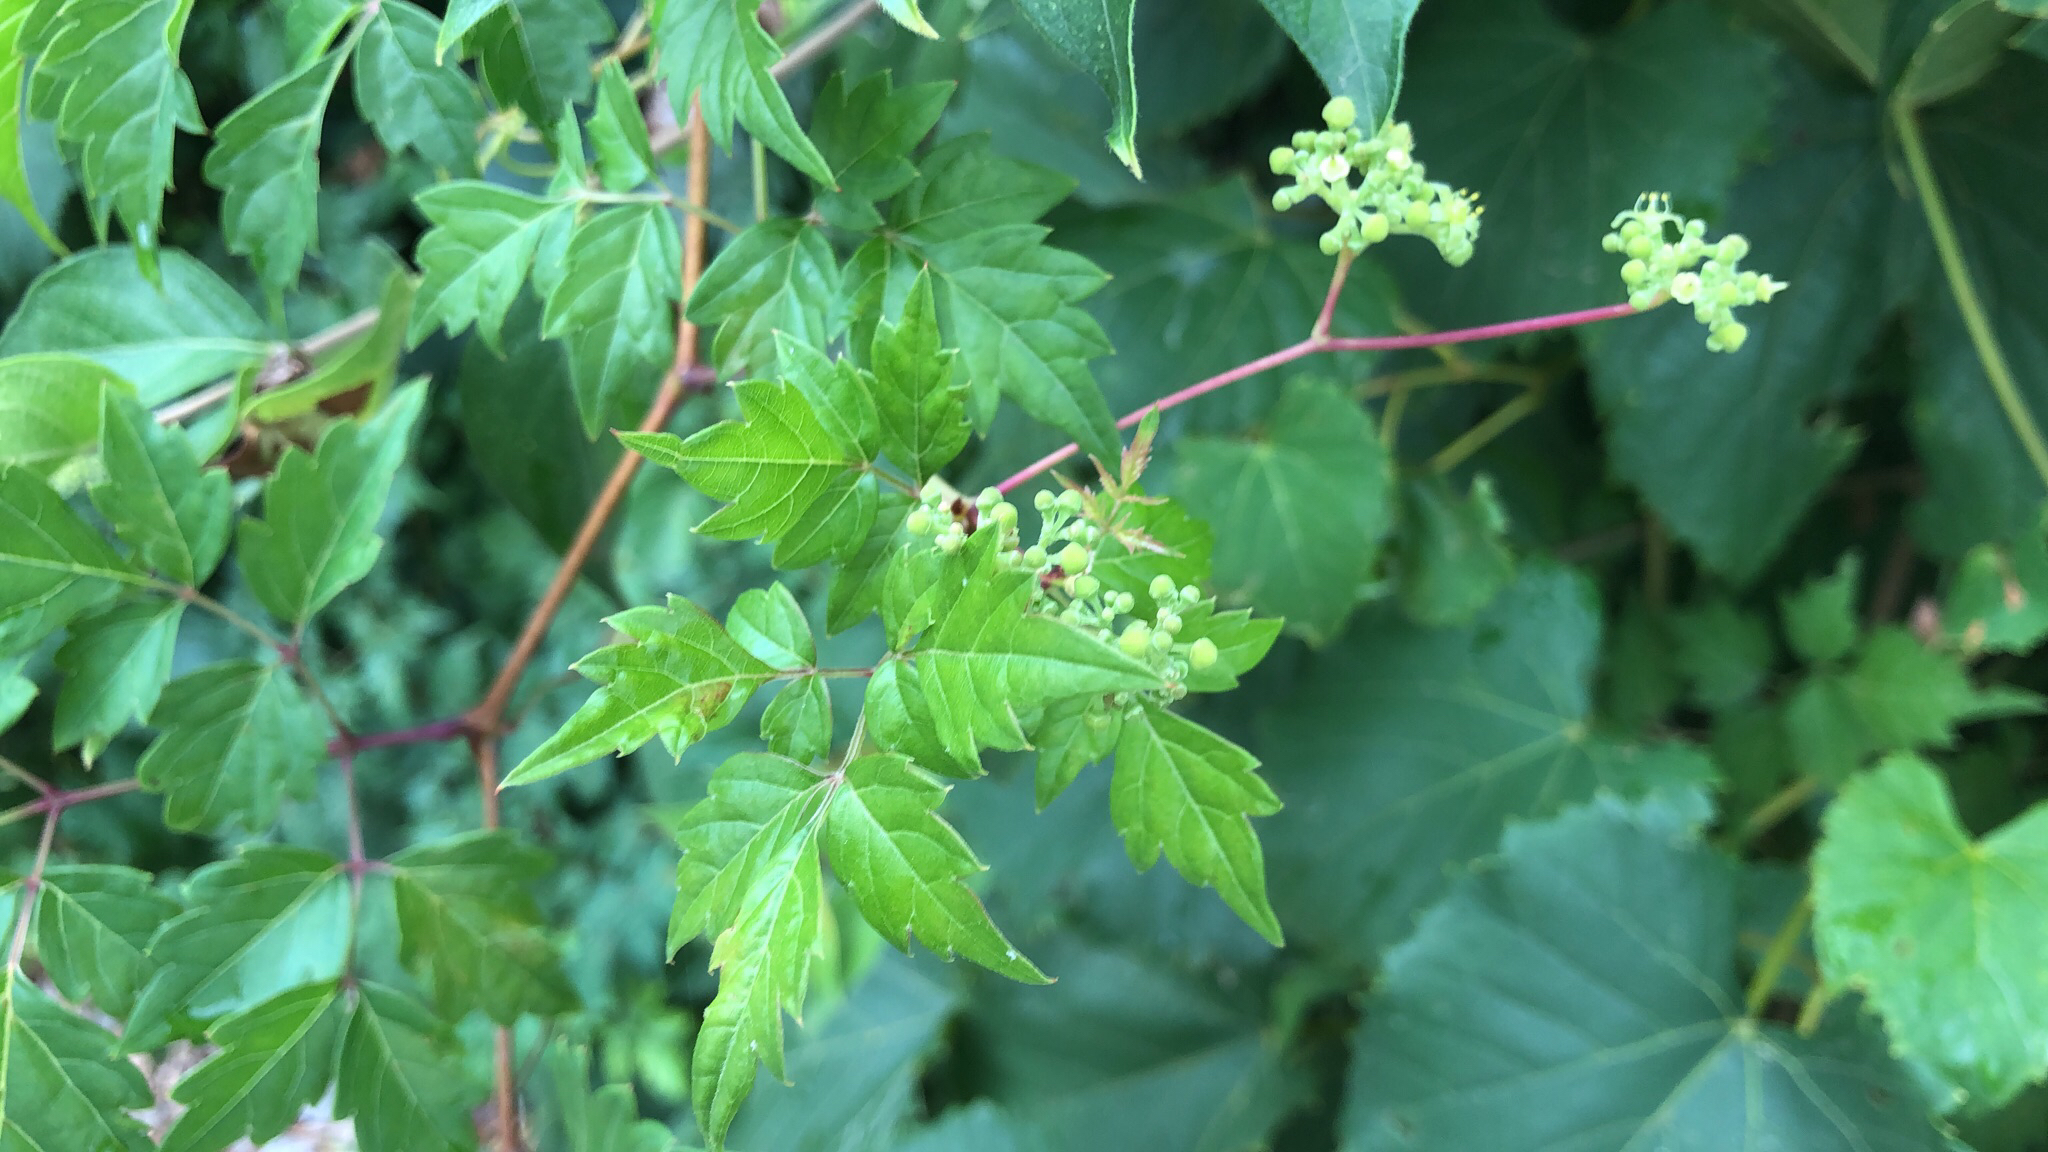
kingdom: Plantae
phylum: Tracheophyta
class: Magnoliopsida
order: Vitales
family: Vitaceae
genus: Nekemias
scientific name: Nekemias arborea
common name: Peppervine
